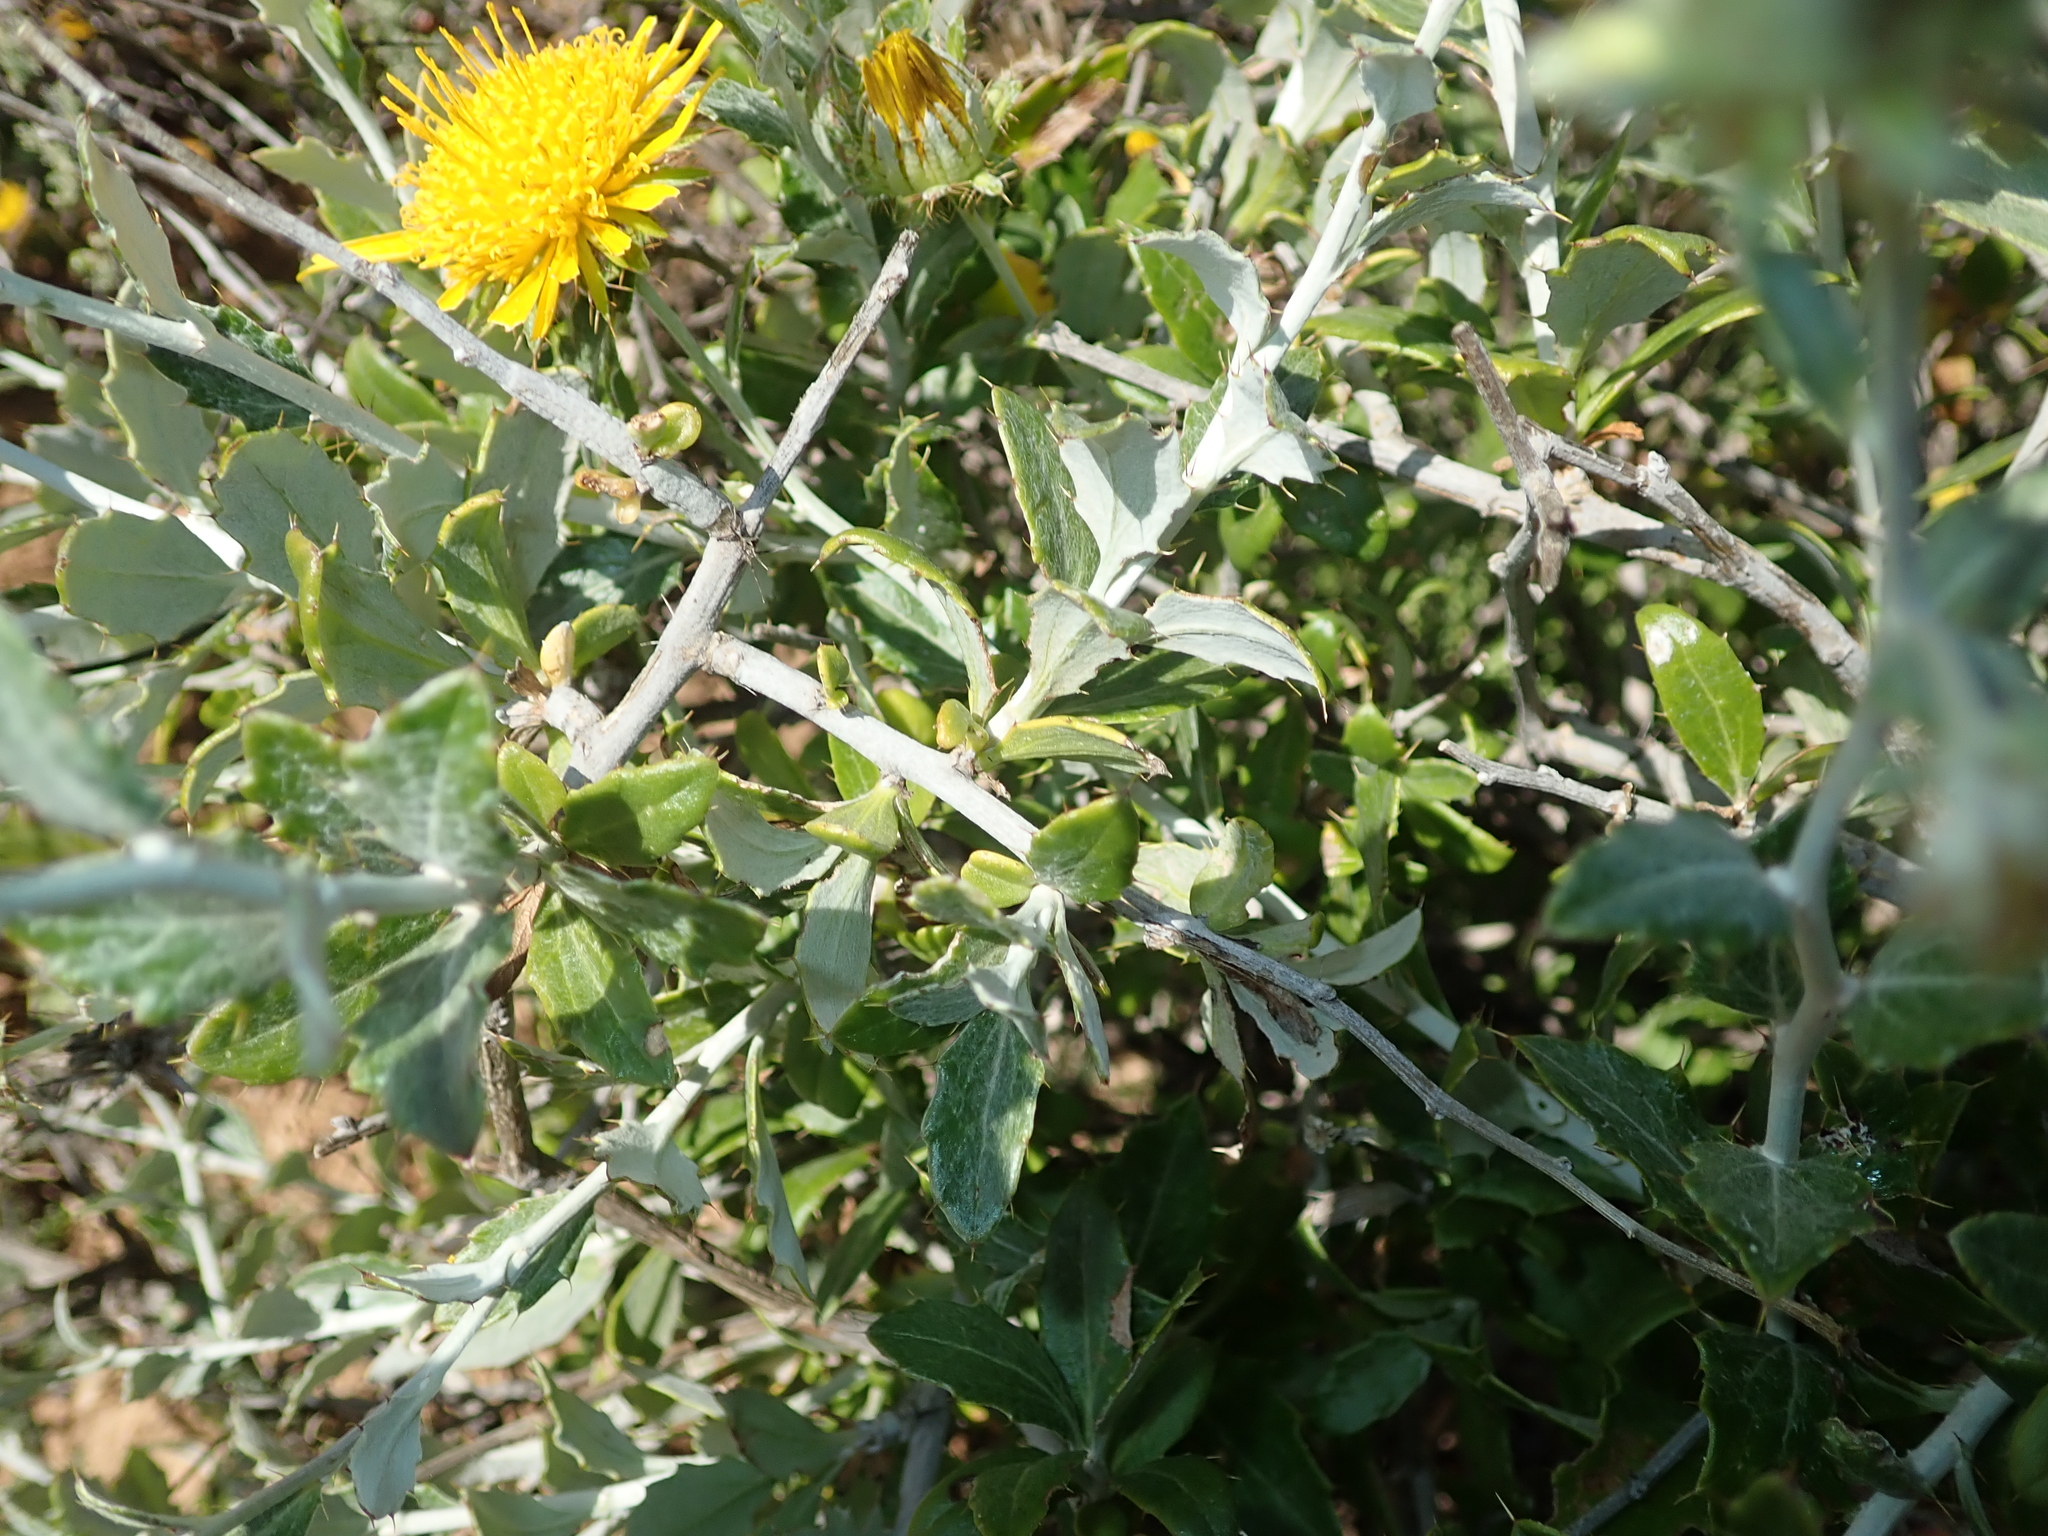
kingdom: Plantae
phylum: Tracheophyta
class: Magnoliopsida
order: Asterales
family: Asteraceae
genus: Berkheya
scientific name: Berkheya fruticosa
